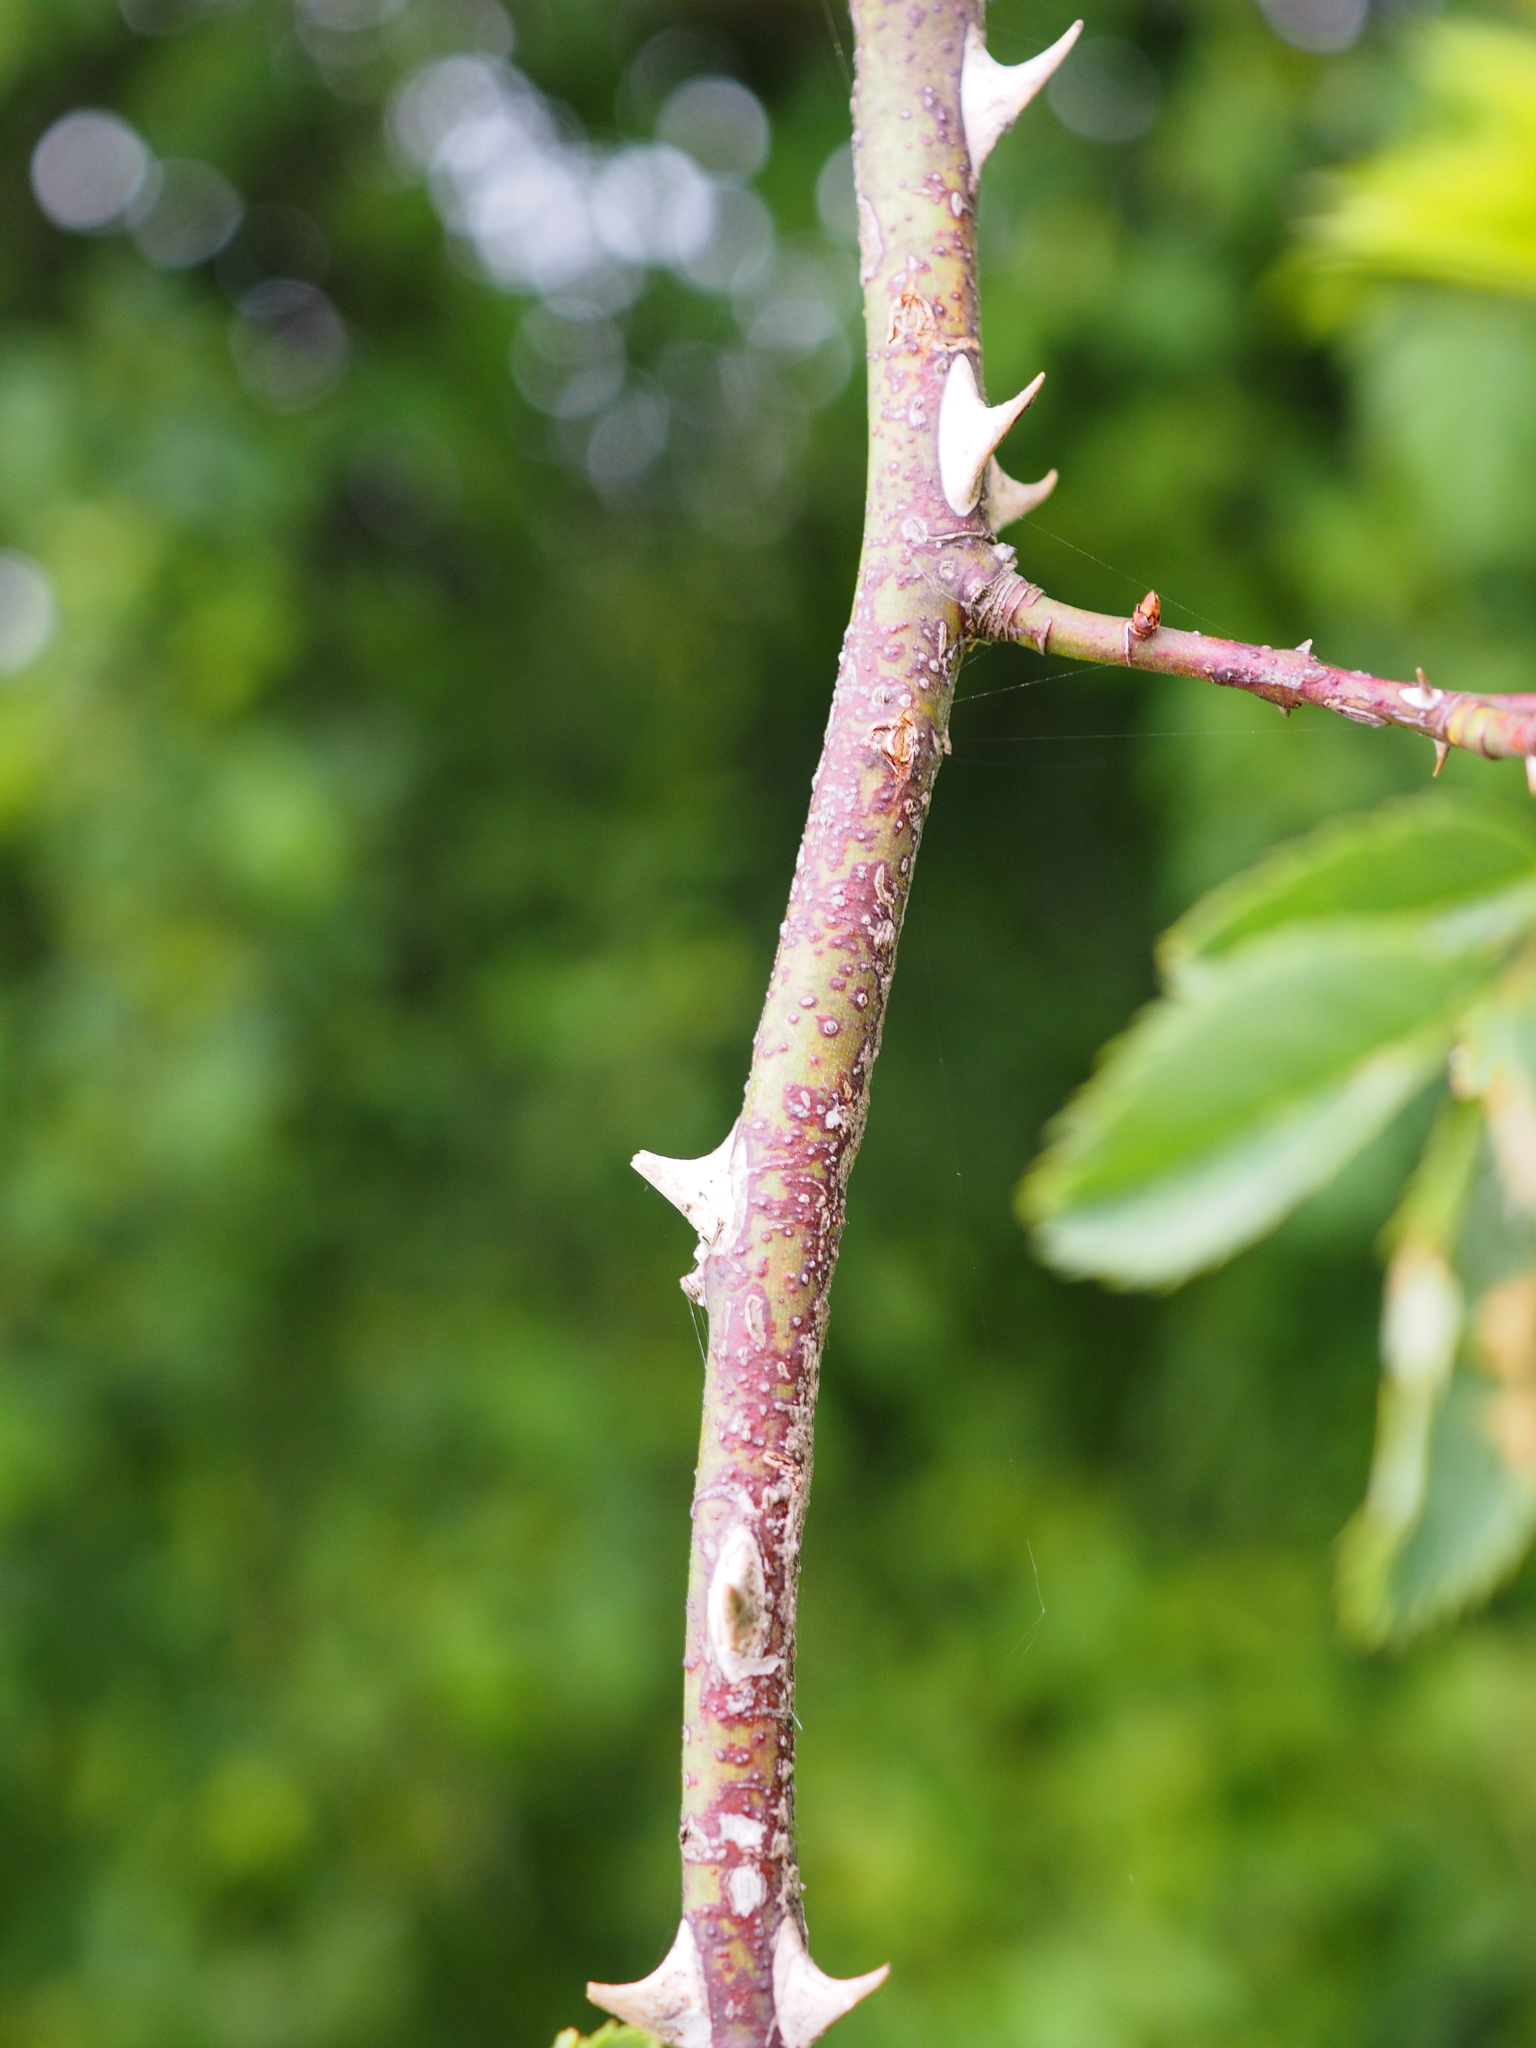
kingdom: Plantae
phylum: Tracheophyta
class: Magnoliopsida
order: Rosales
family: Rosaceae
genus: Rosa
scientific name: Rosa canina
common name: Dog rose
